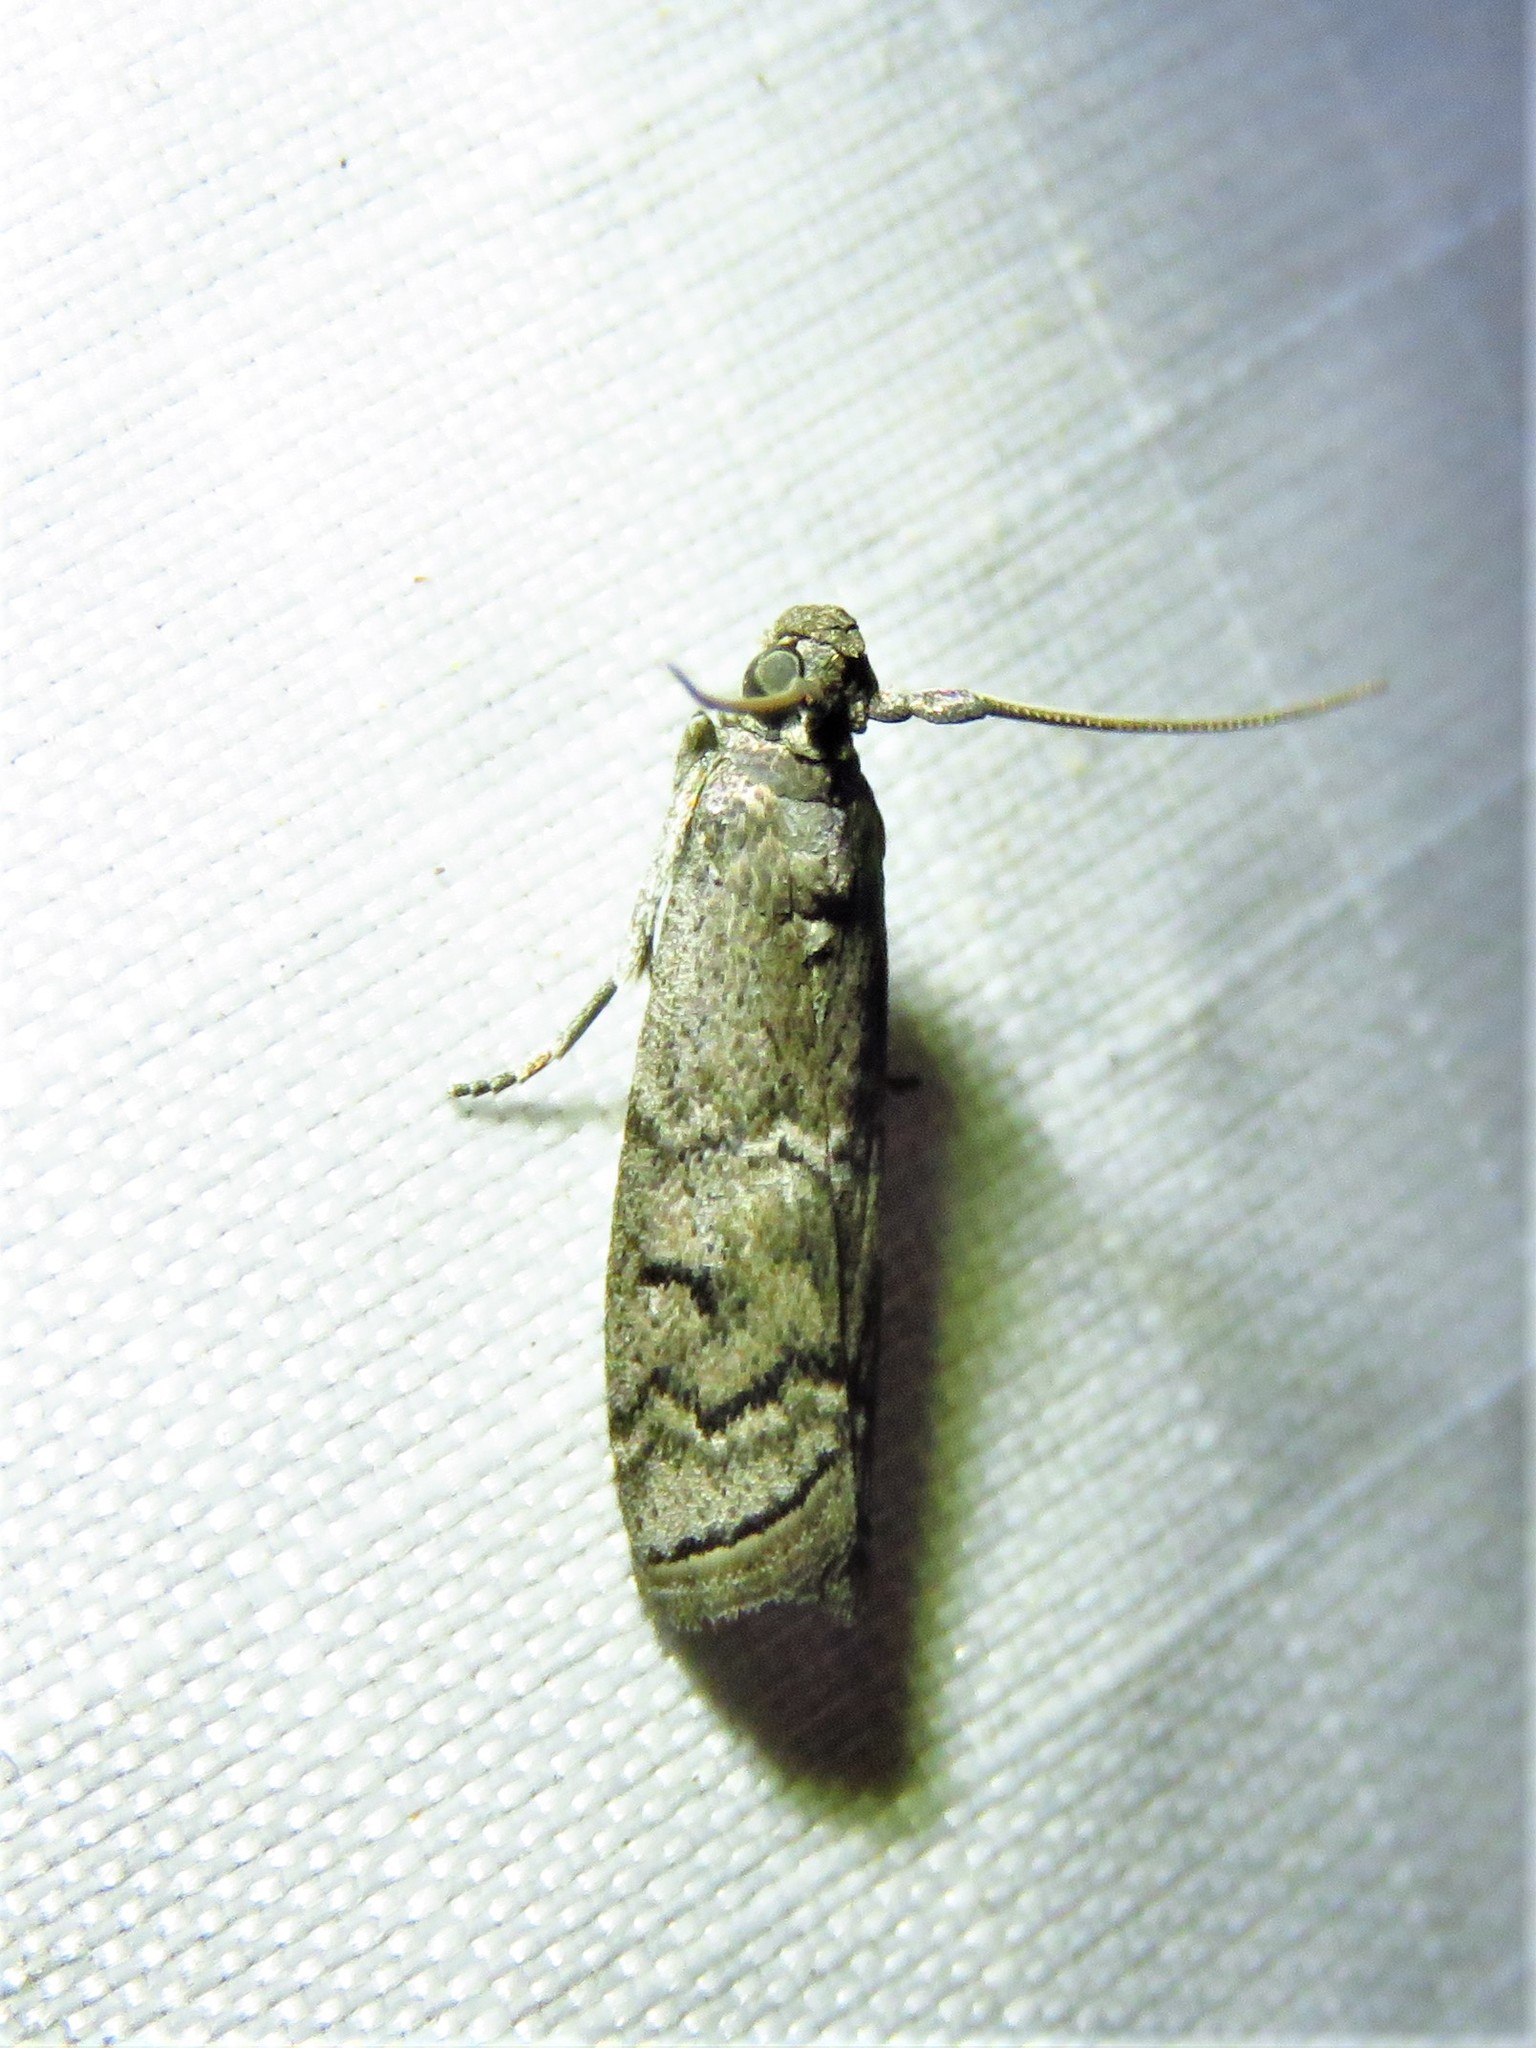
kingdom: Animalia
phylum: Arthropoda
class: Insecta
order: Lepidoptera
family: Pyralidae
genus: Ancylosis
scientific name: Ancylosis Canarsia ulmiarrosorella
